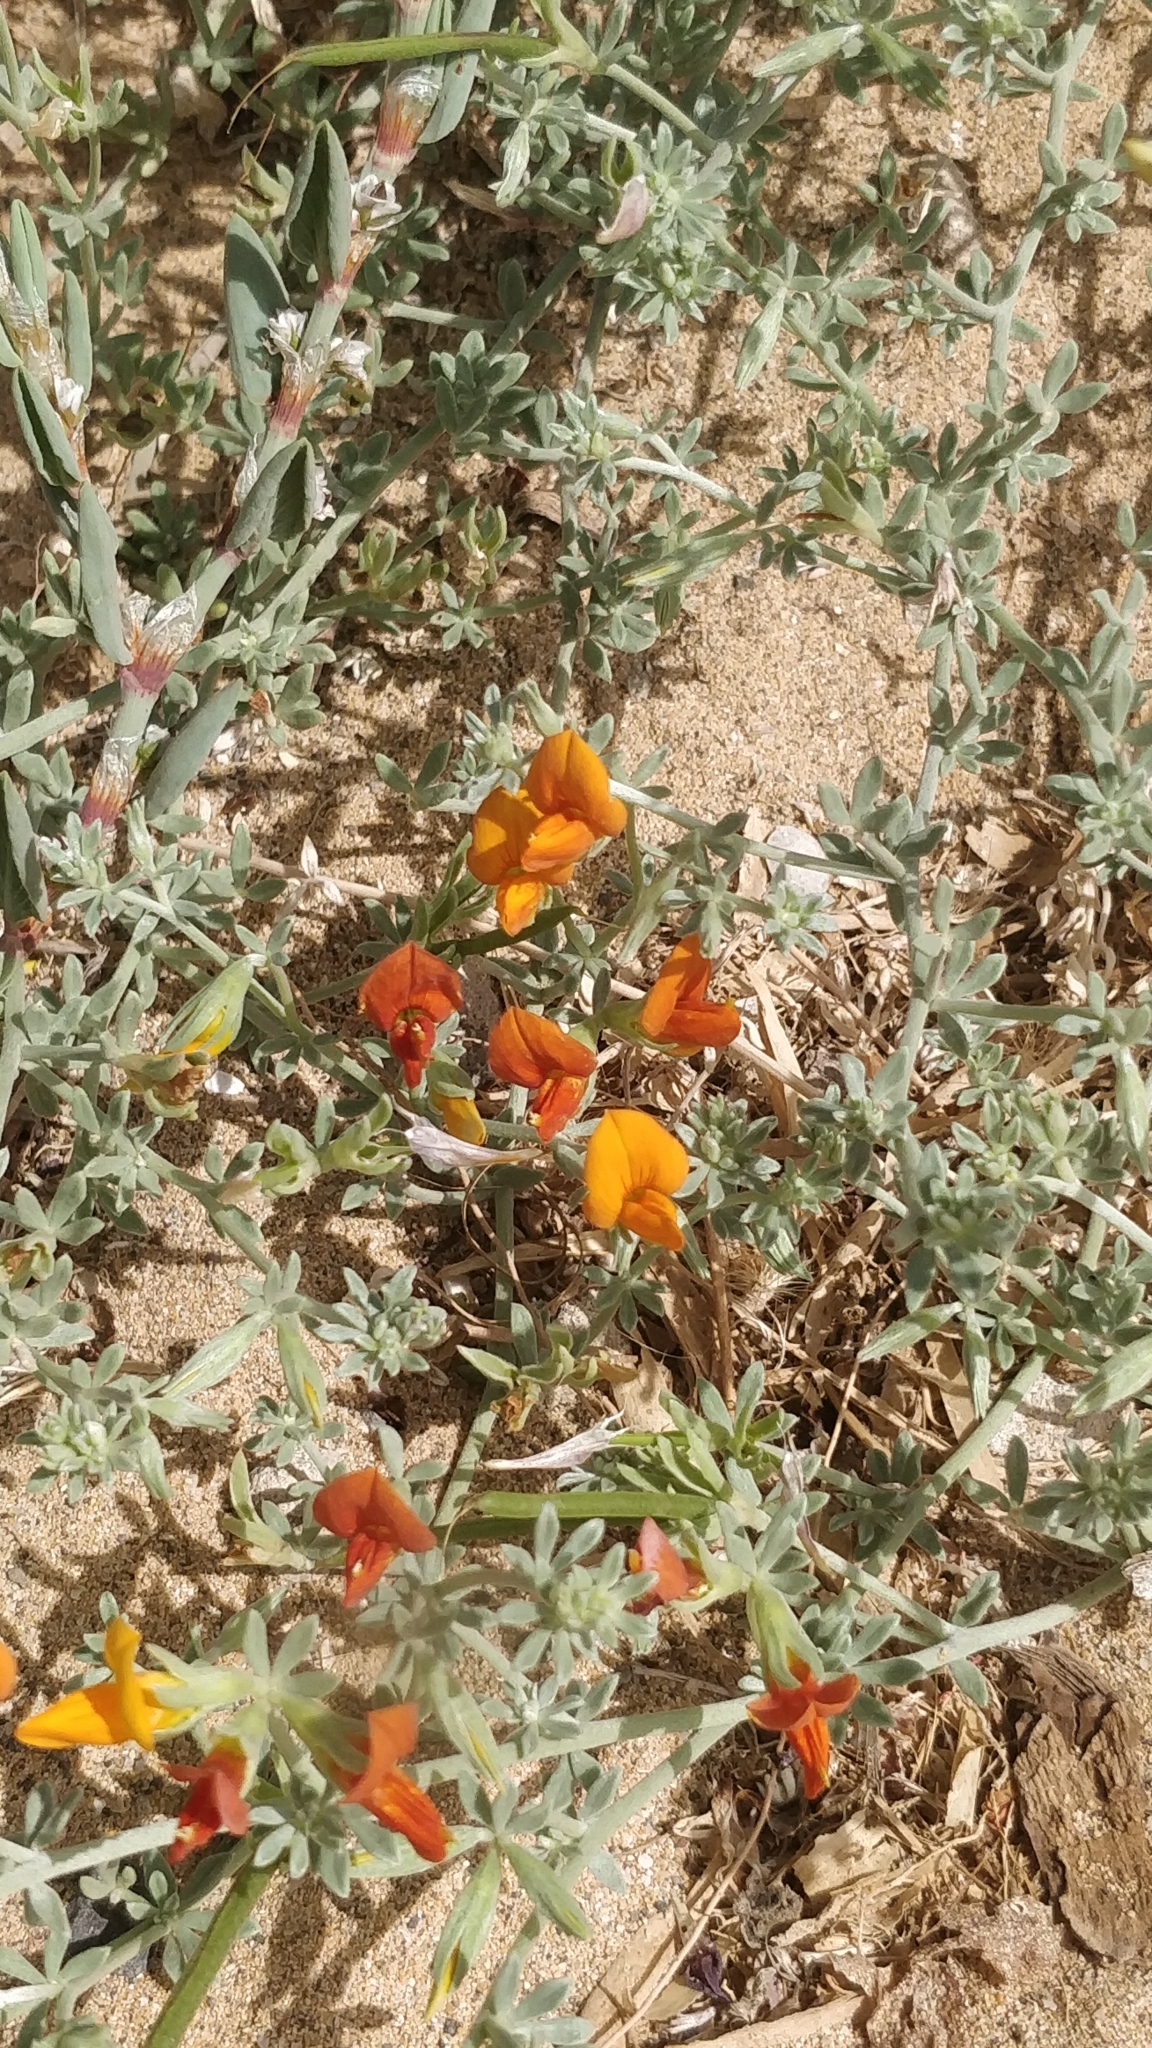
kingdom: Plantae
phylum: Tracheophyta
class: Magnoliopsida
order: Fabales
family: Fabaceae
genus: Lotus
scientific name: Lotus glaucus
